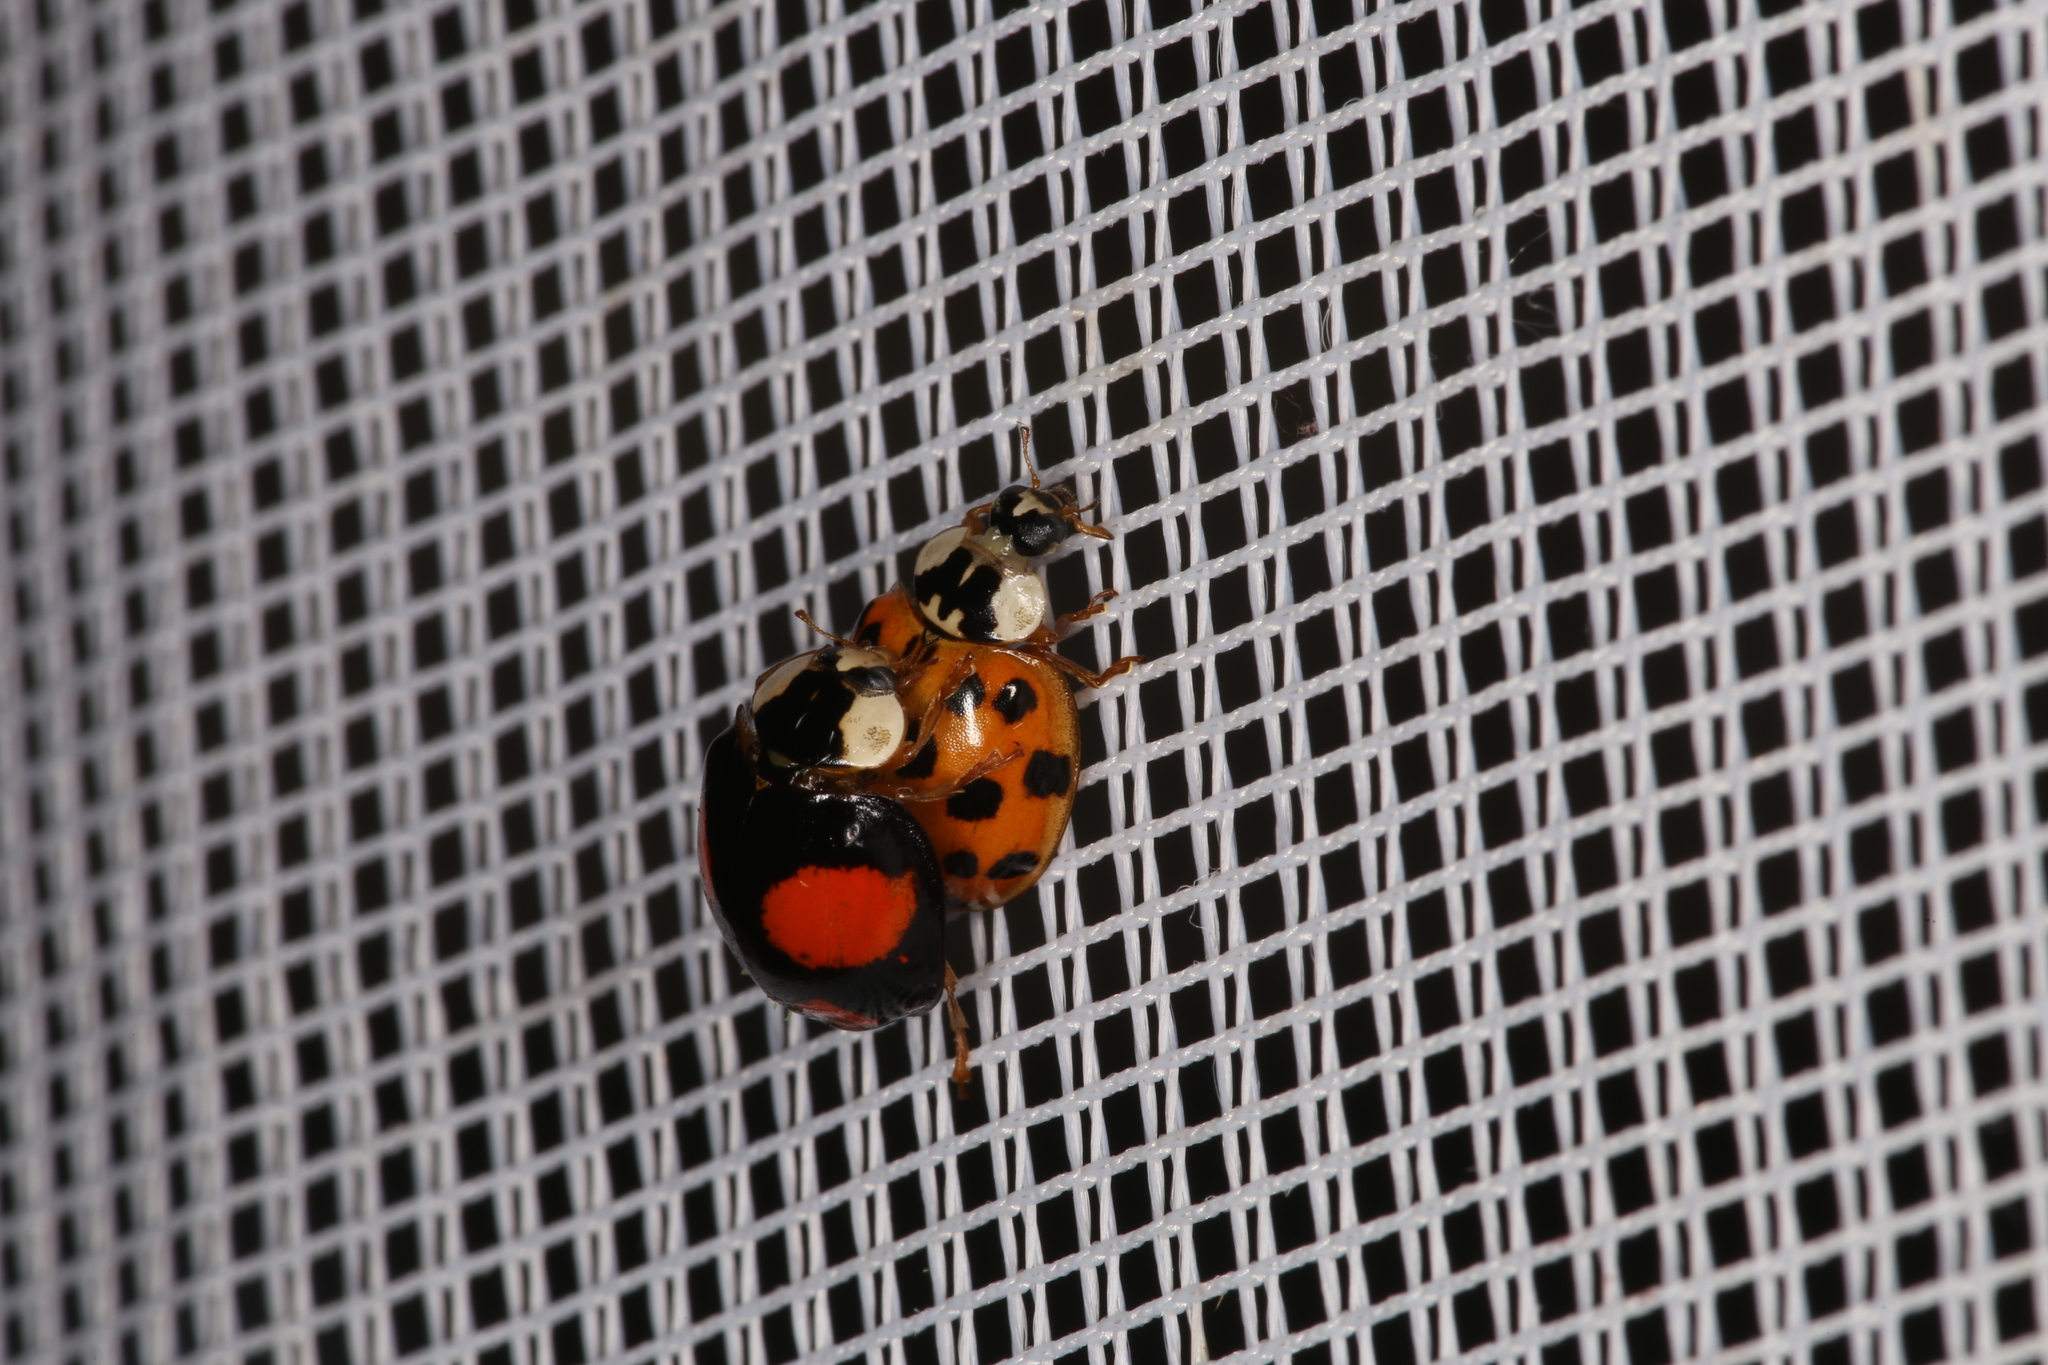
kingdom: Animalia
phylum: Arthropoda
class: Insecta
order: Coleoptera
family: Coccinellidae
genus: Harmonia
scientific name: Harmonia axyridis
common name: Harlequin ladybird
